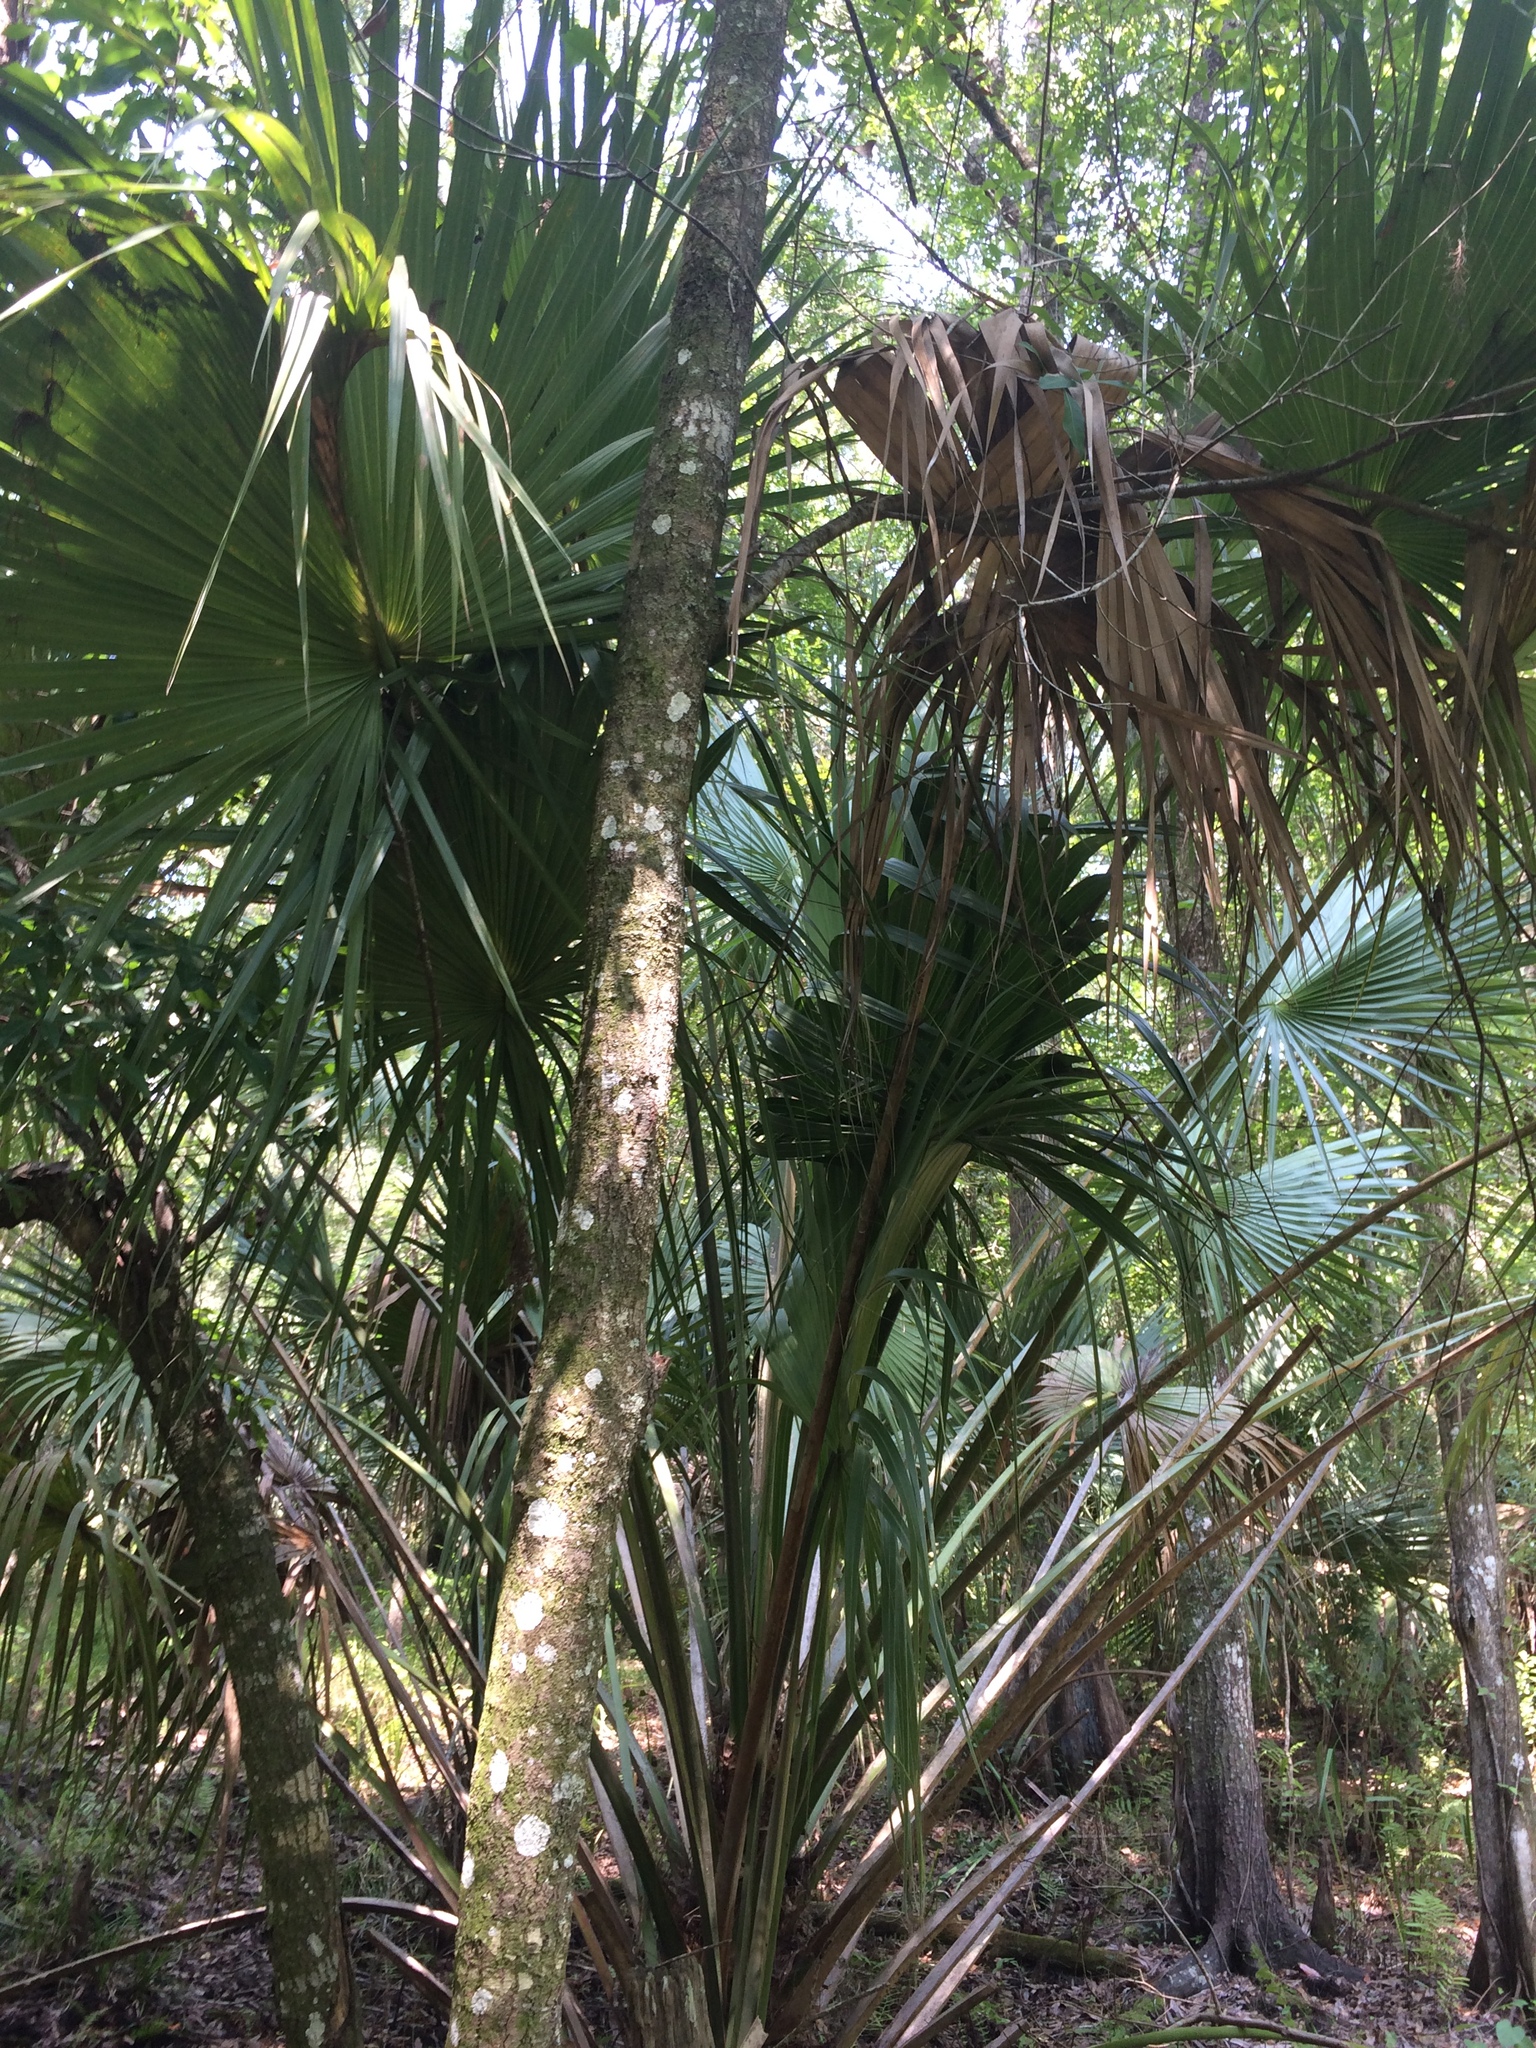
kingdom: Plantae
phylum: Tracheophyta
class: Liliopsida
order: Arecales
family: Arecaceae
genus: Sabal
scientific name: Sabal palmetto
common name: Blue palmetto
